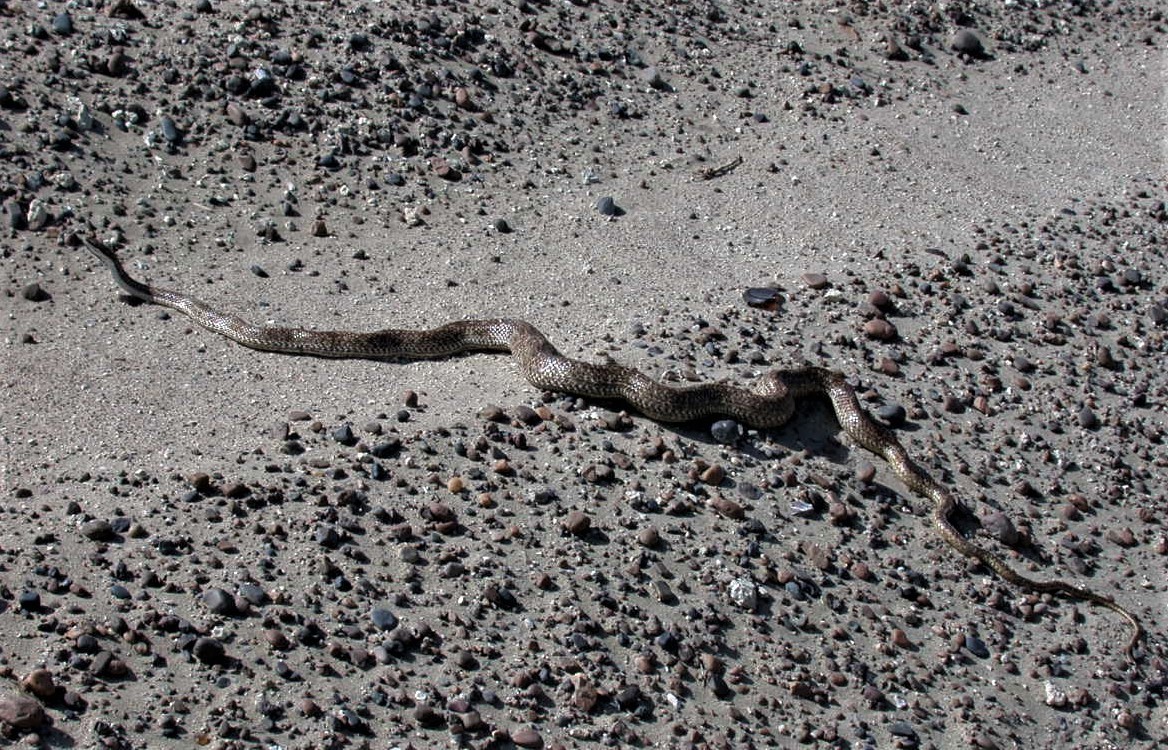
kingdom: Animalia
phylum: Chordata
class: Squamata
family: Colubridae
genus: Philodryas
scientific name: Philodryas trilineata
